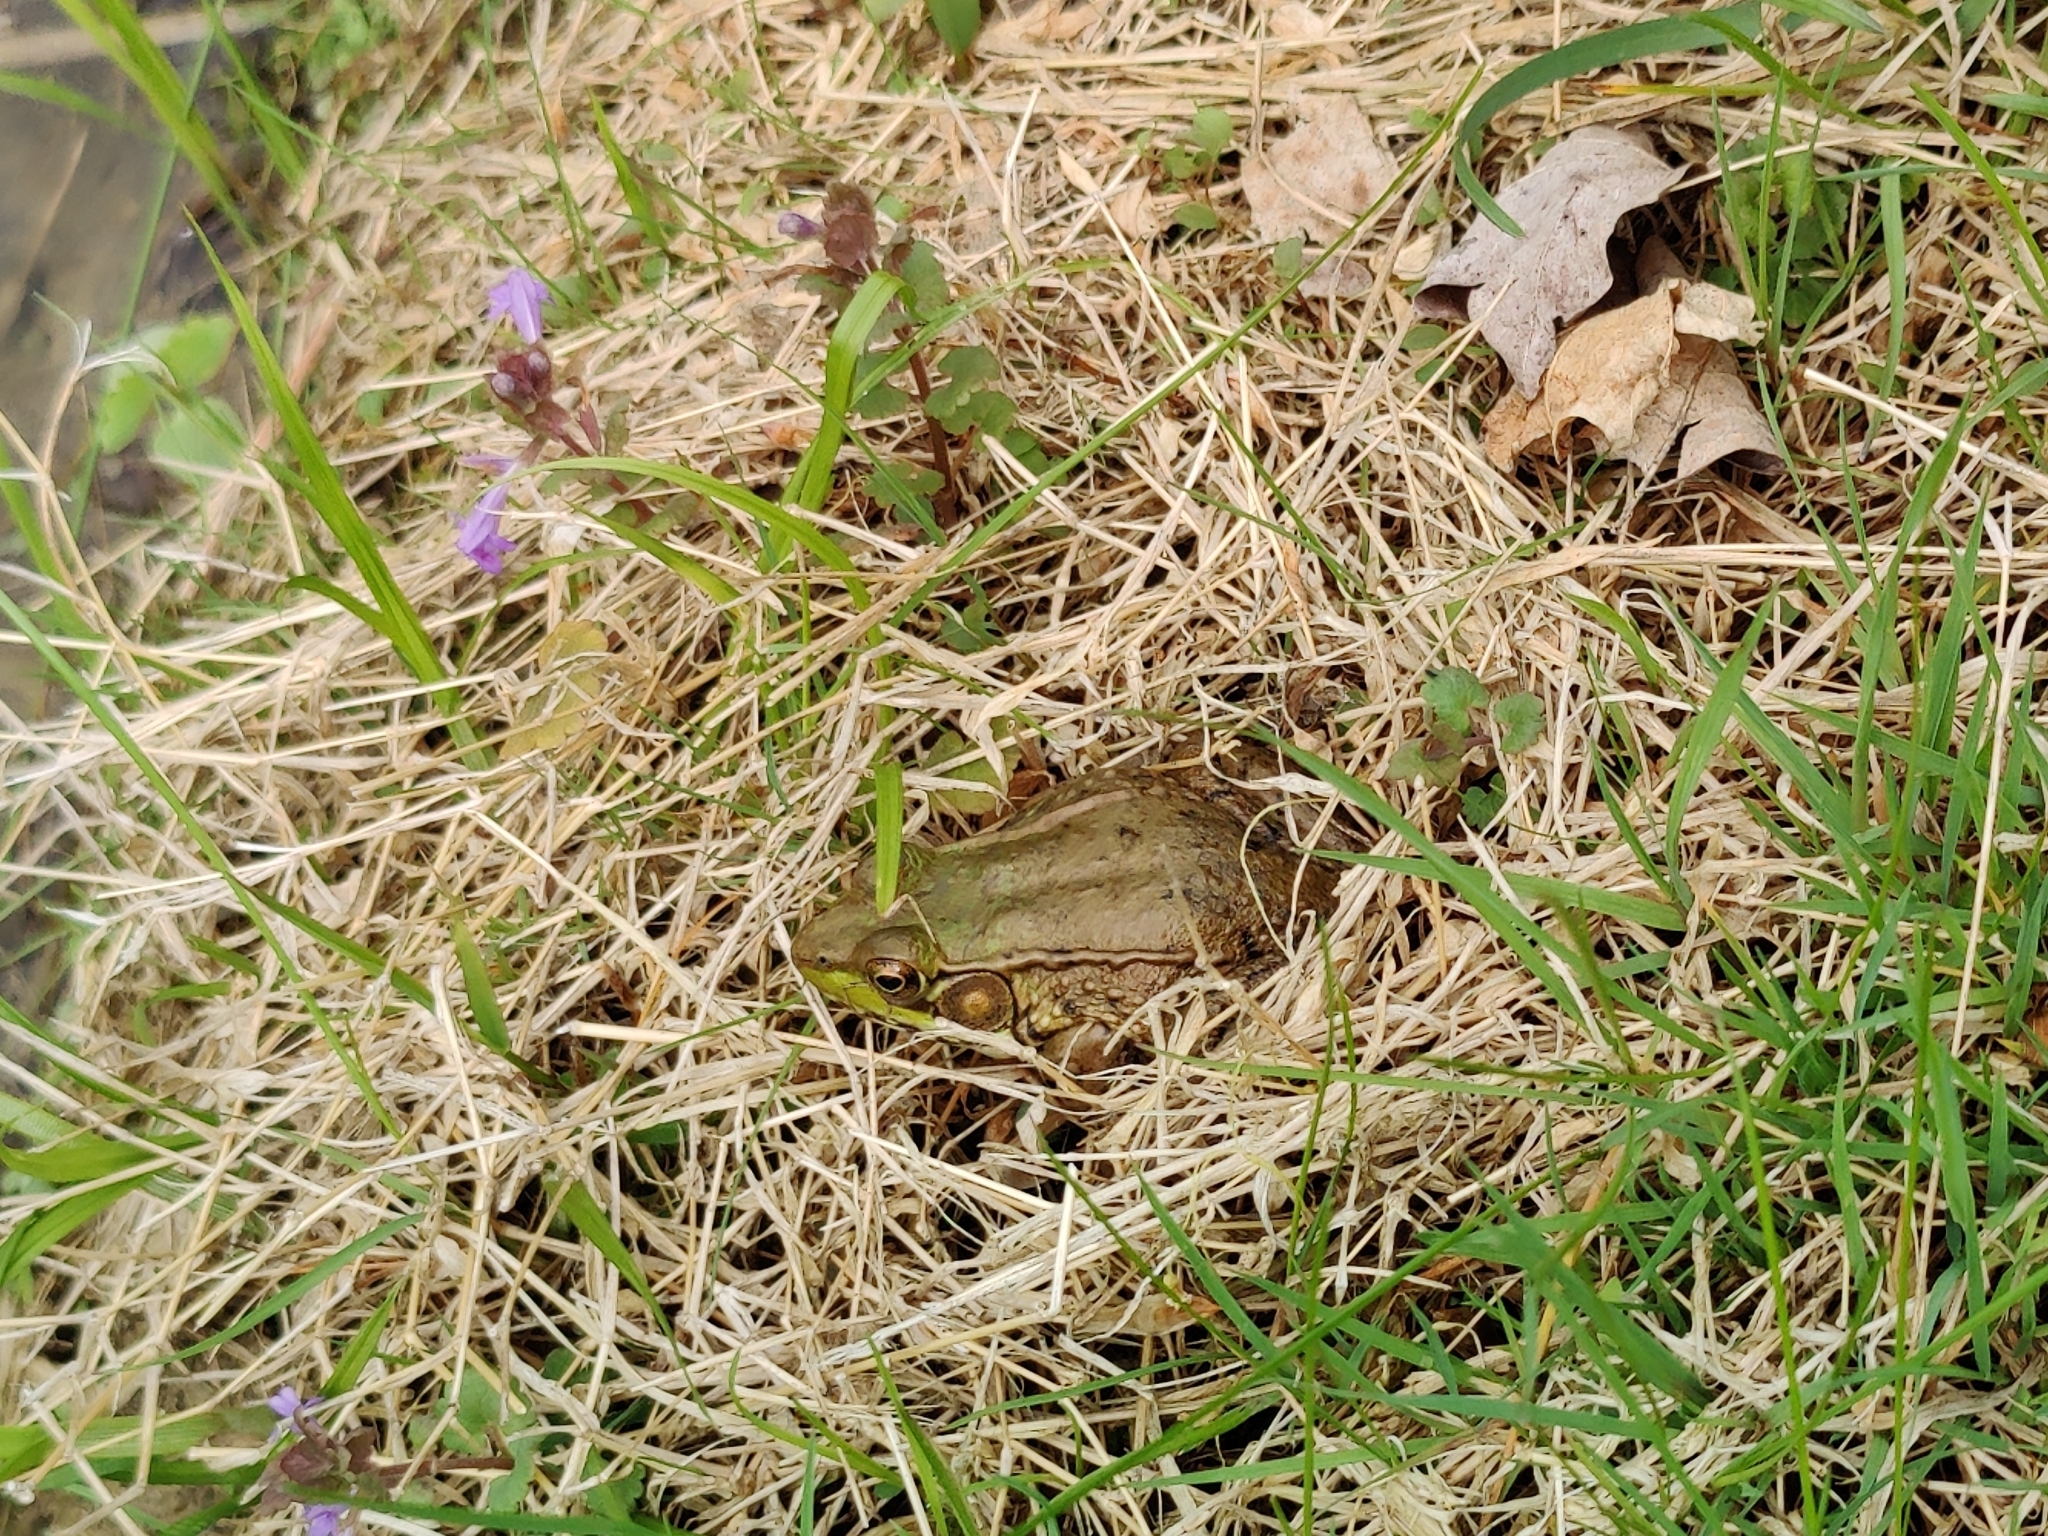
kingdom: Animalia
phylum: Chordata
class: Amphibia
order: Anura
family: Ranidae
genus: Lithobates
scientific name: Lithobates clamitans
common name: Green frog
